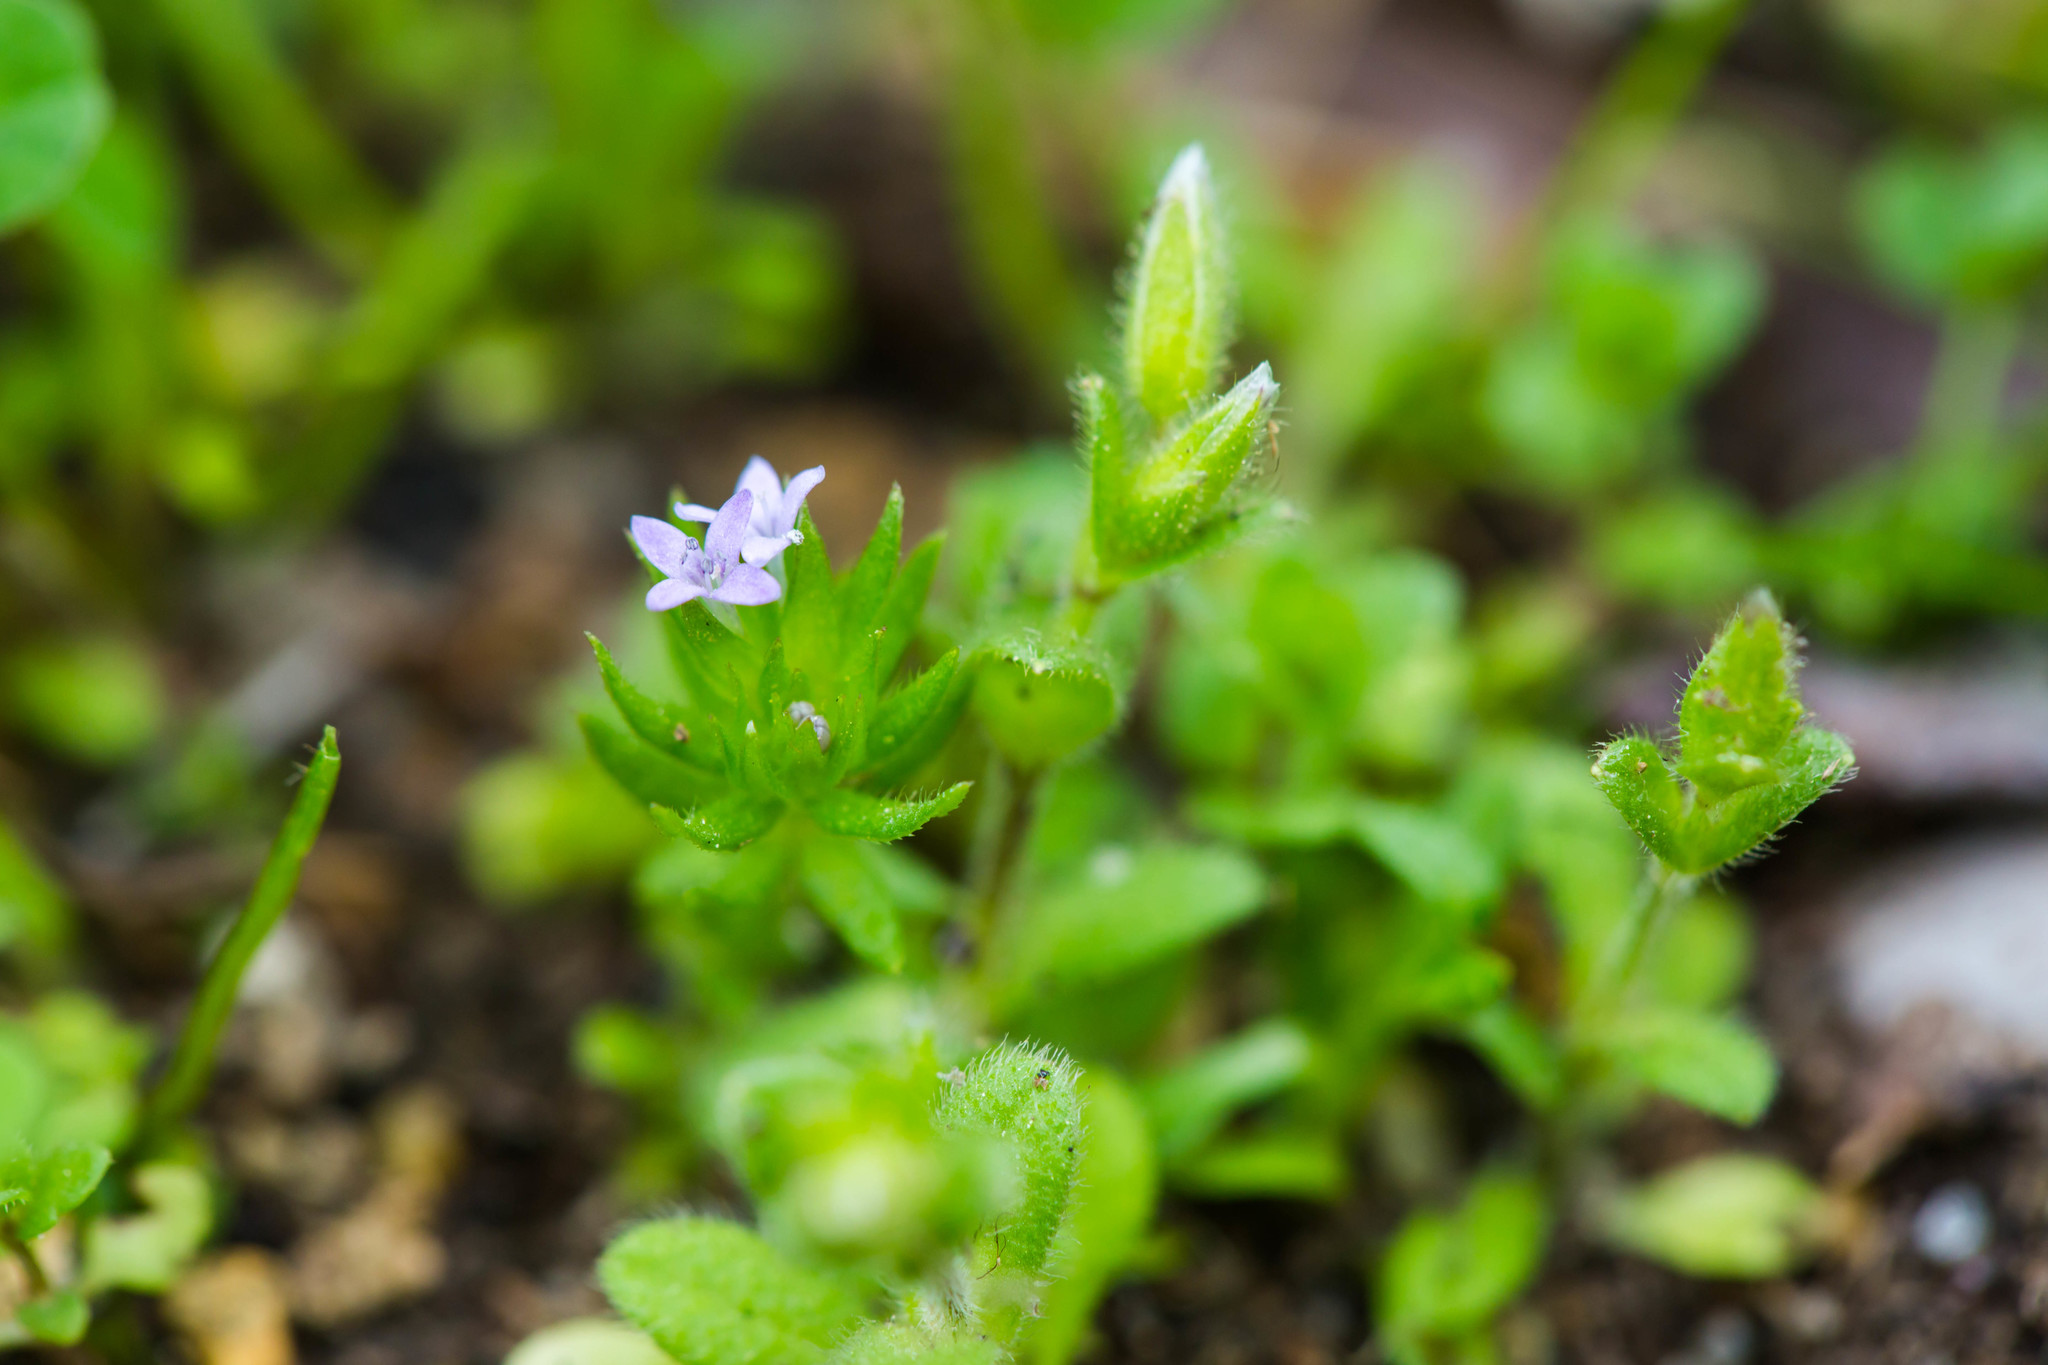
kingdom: Plantae
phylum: Tracheophyta
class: Magnoliopsida
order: Gentianales
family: Rubiaceae
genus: Sherardia
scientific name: Sherardia arvensis
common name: Field madder
